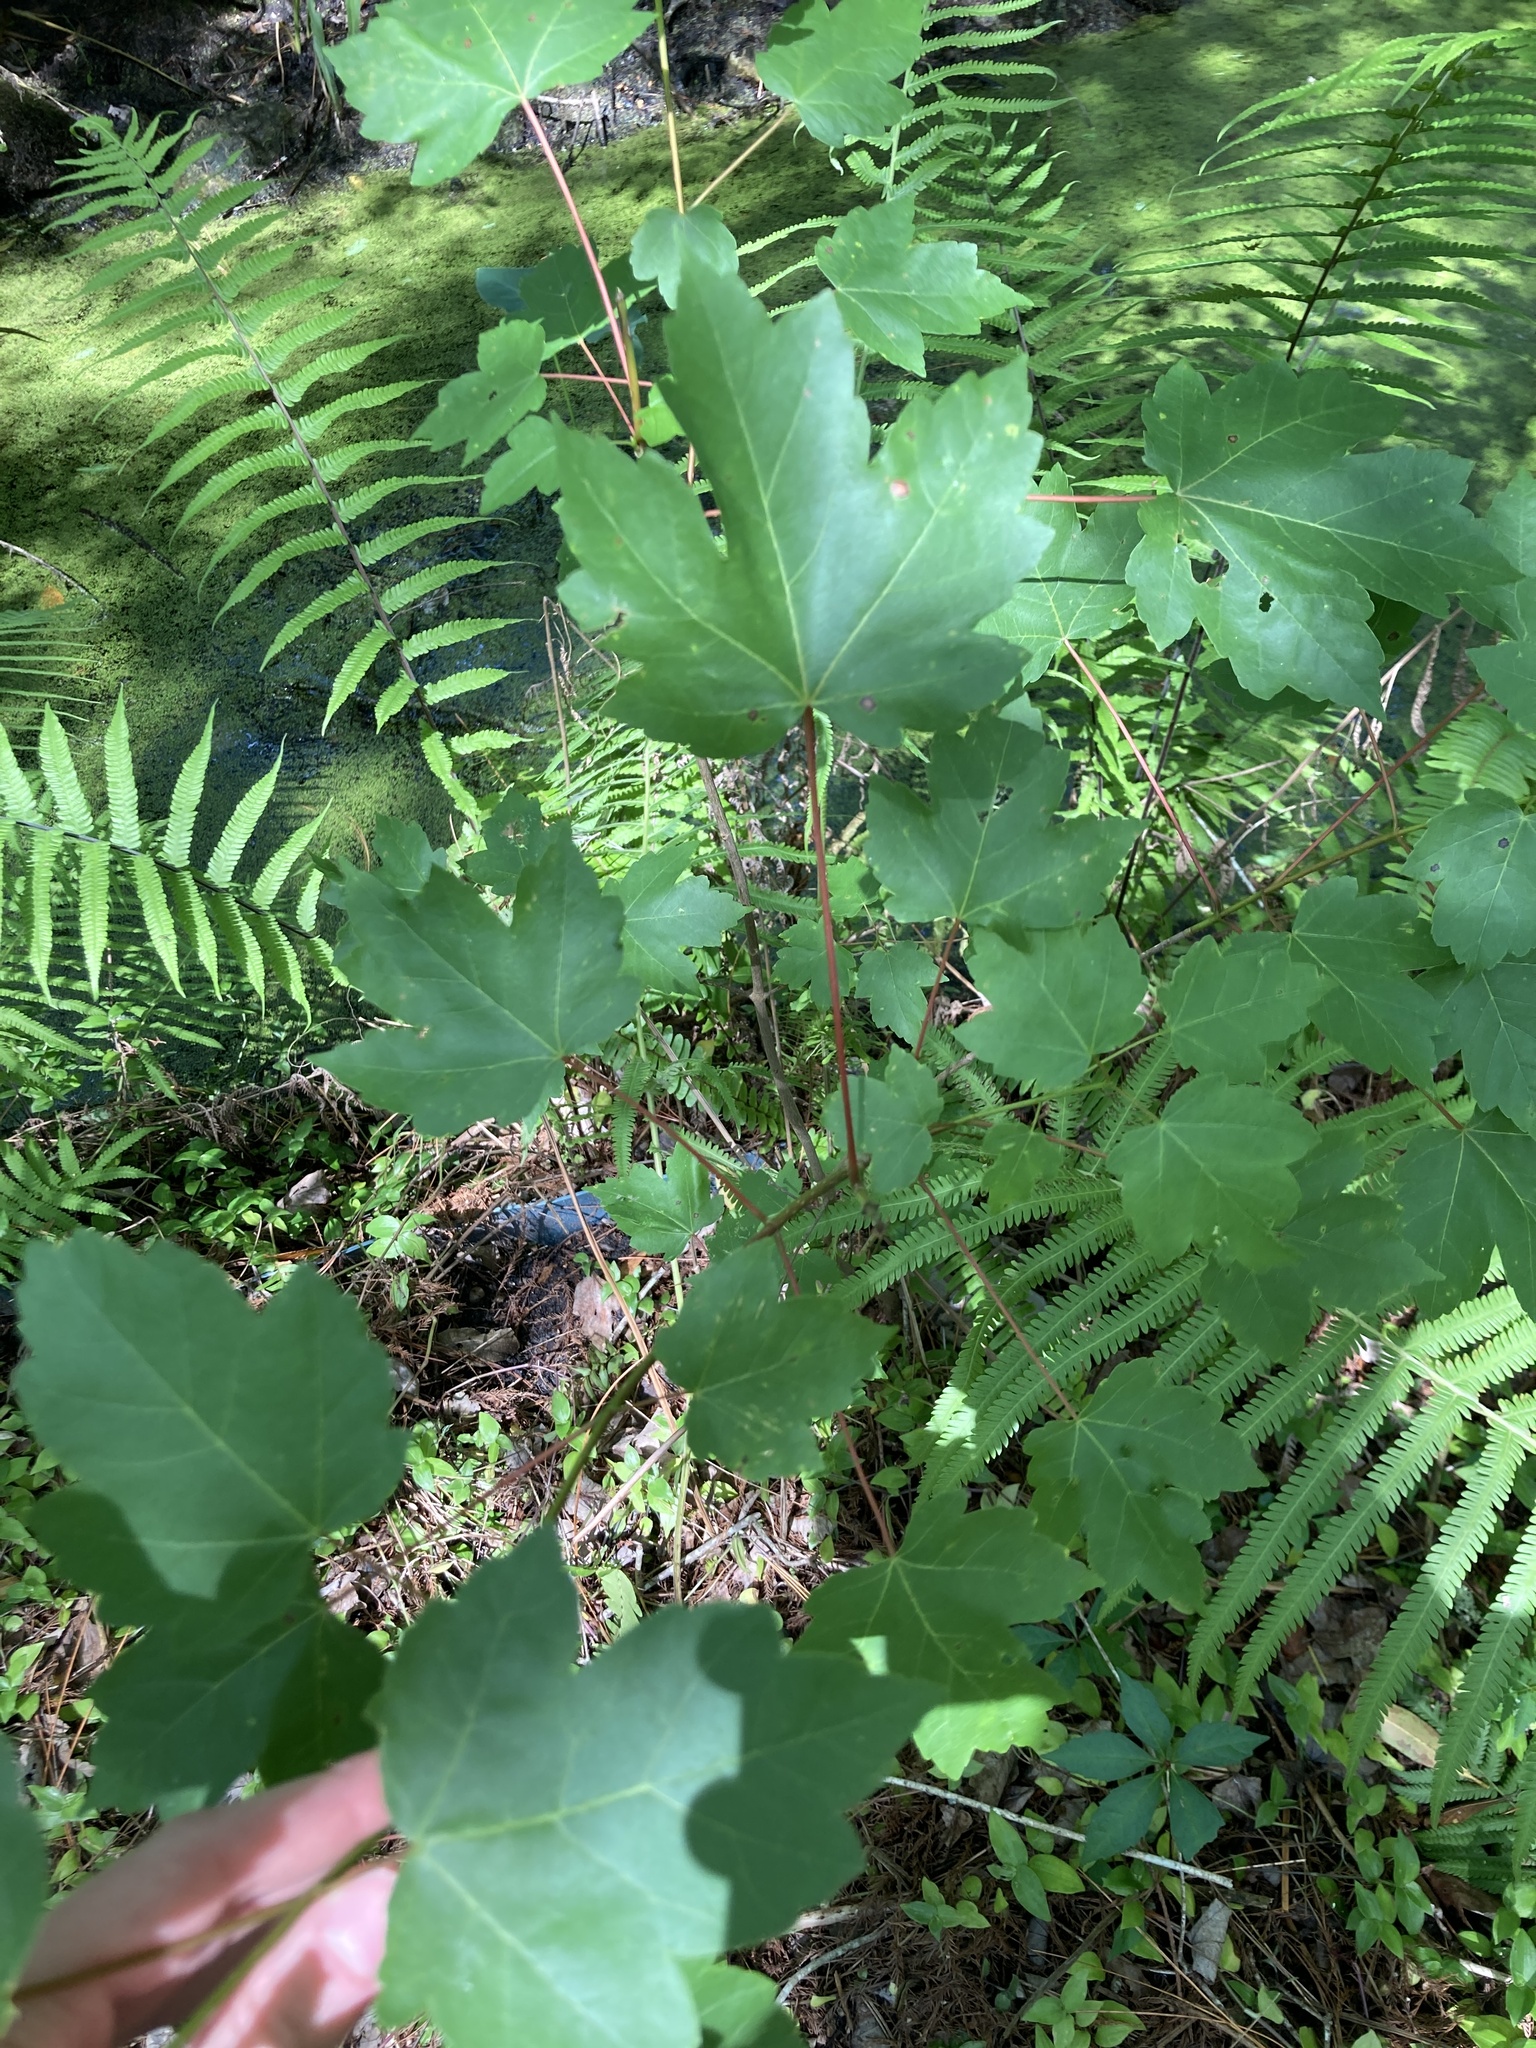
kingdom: Plantae
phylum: Tracheophyta
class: Magnoliopsida
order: Sapindales
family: Sapindaceae
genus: Acer
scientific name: Acer rubrum
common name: Red maple
